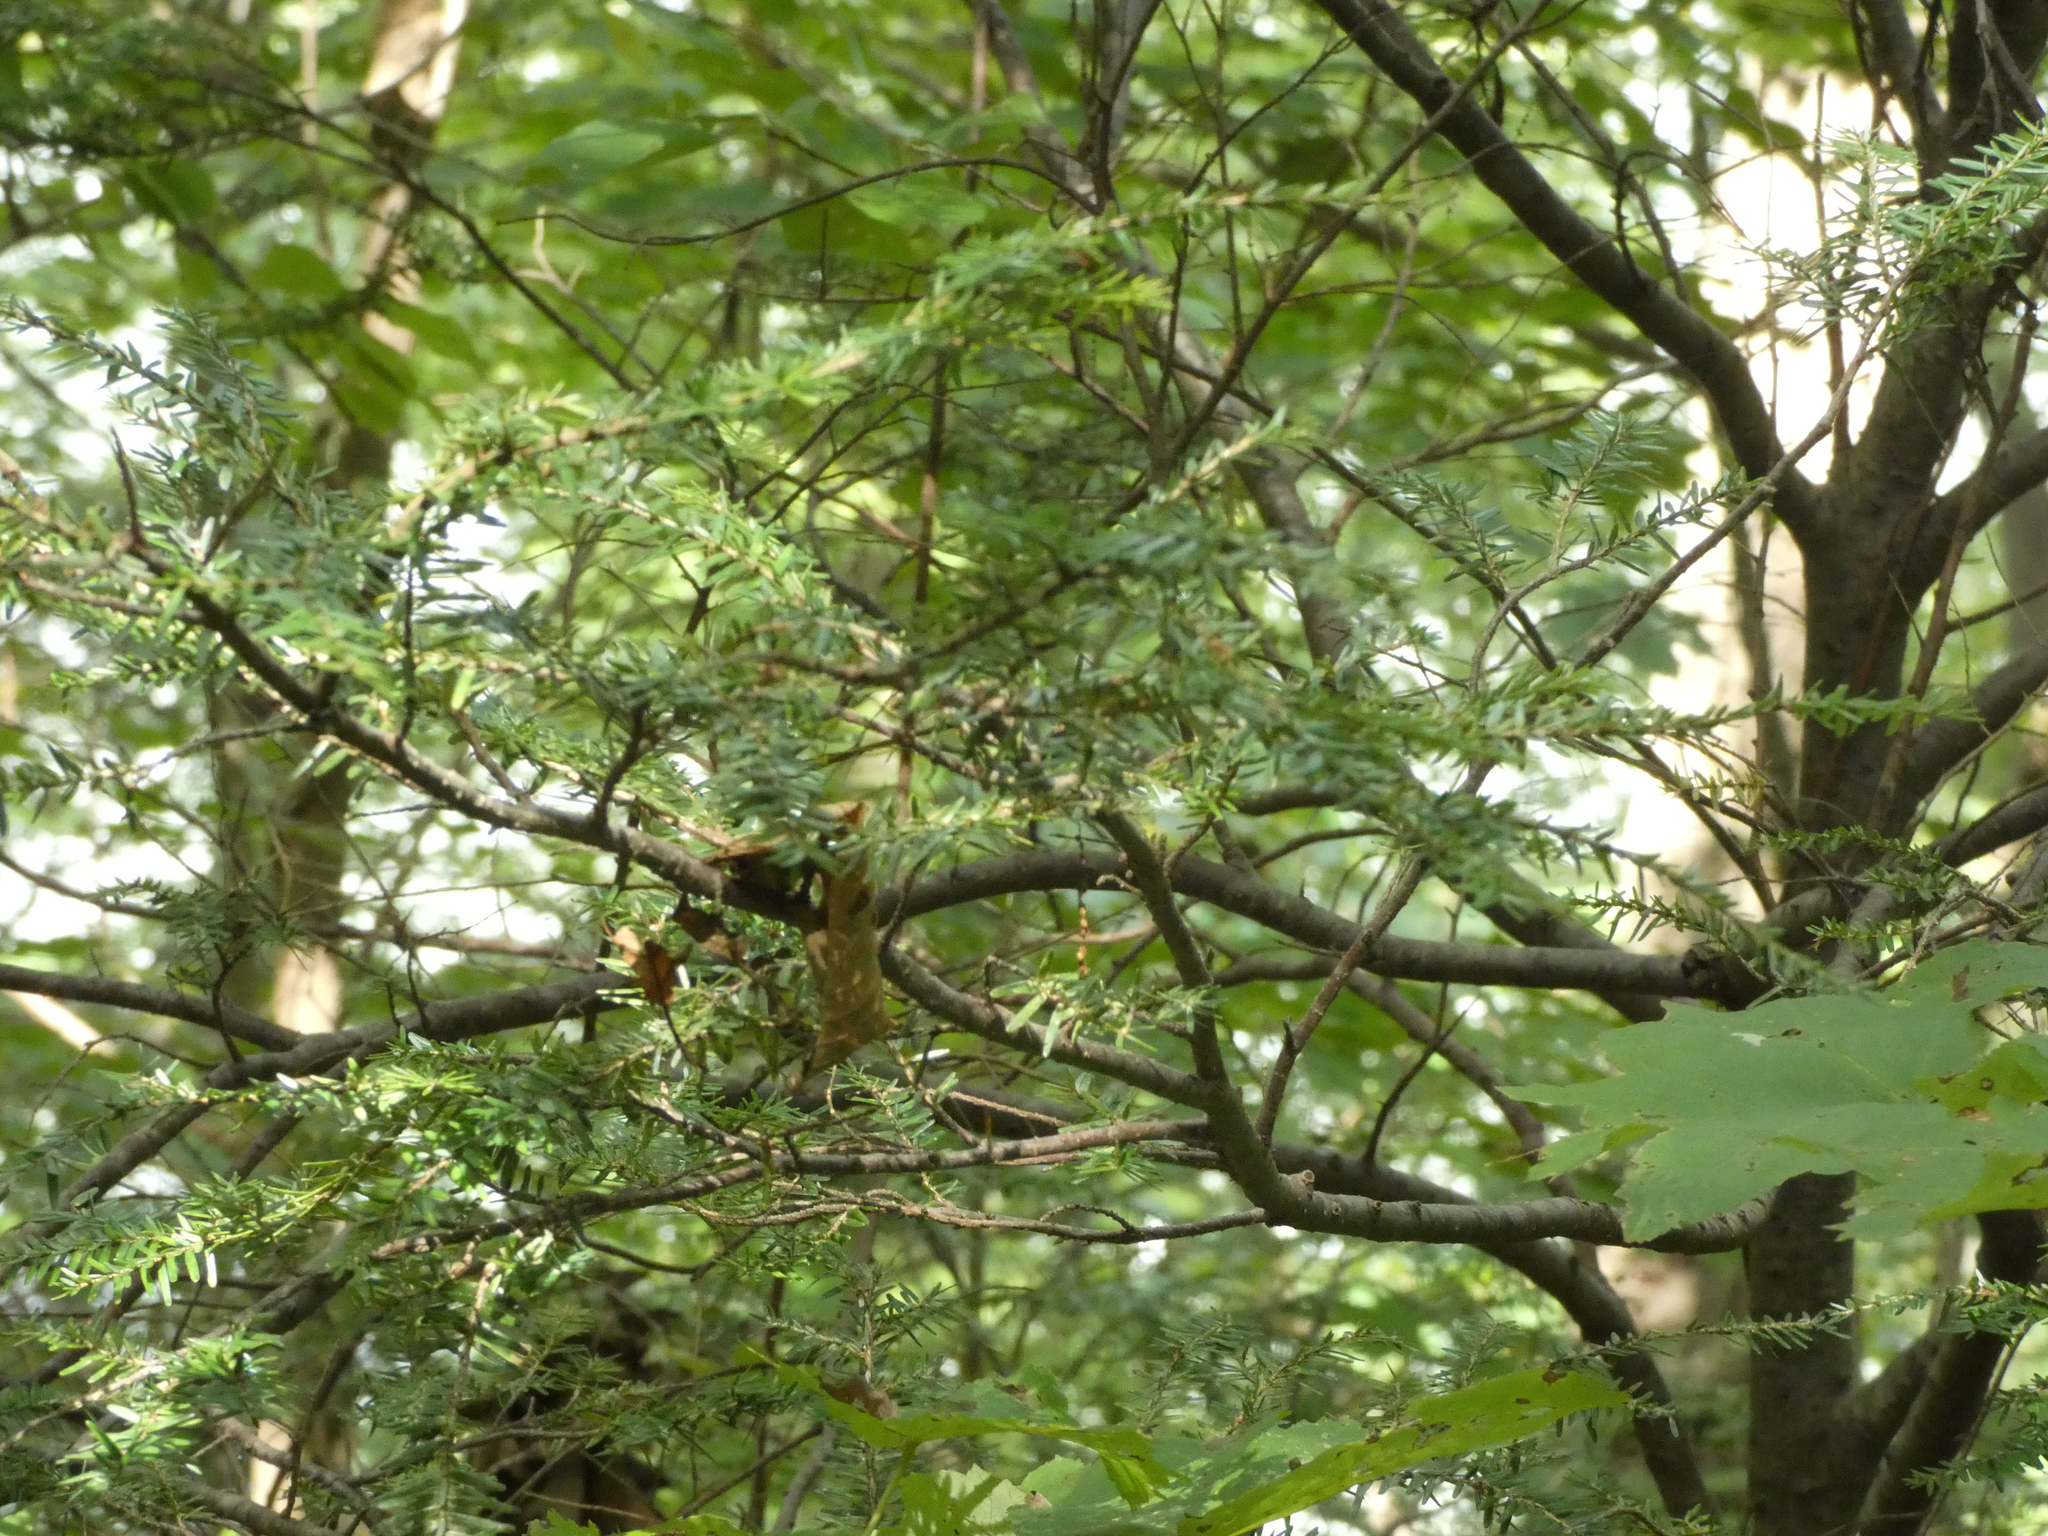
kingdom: Plantae
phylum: Tracheophyta
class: Pinopsida
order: Pinales
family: Pinaceae
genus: Tsuga
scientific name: Tsuga canadensis
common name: Eastern hemlock
